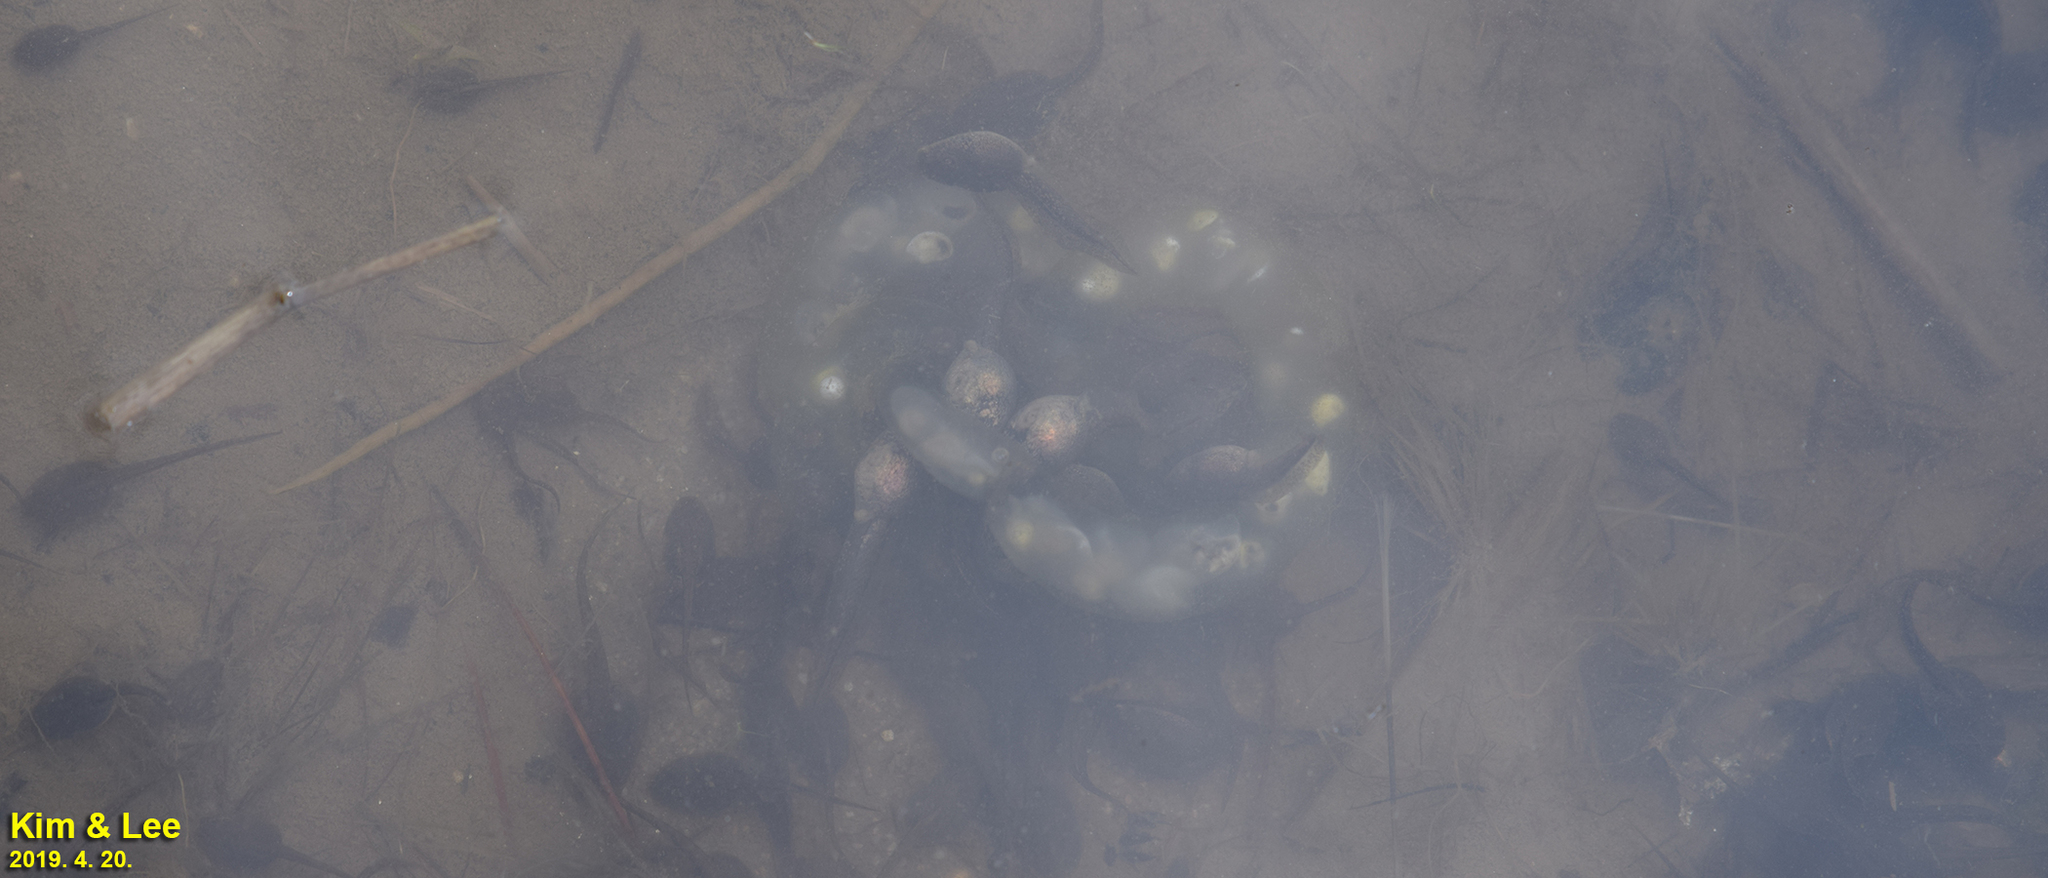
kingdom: Animalia
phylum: Chordata
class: Amphibia
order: Caudata
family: Hynobiidae
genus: Hynobius
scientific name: Hynobius leechii
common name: Gensan salamander
